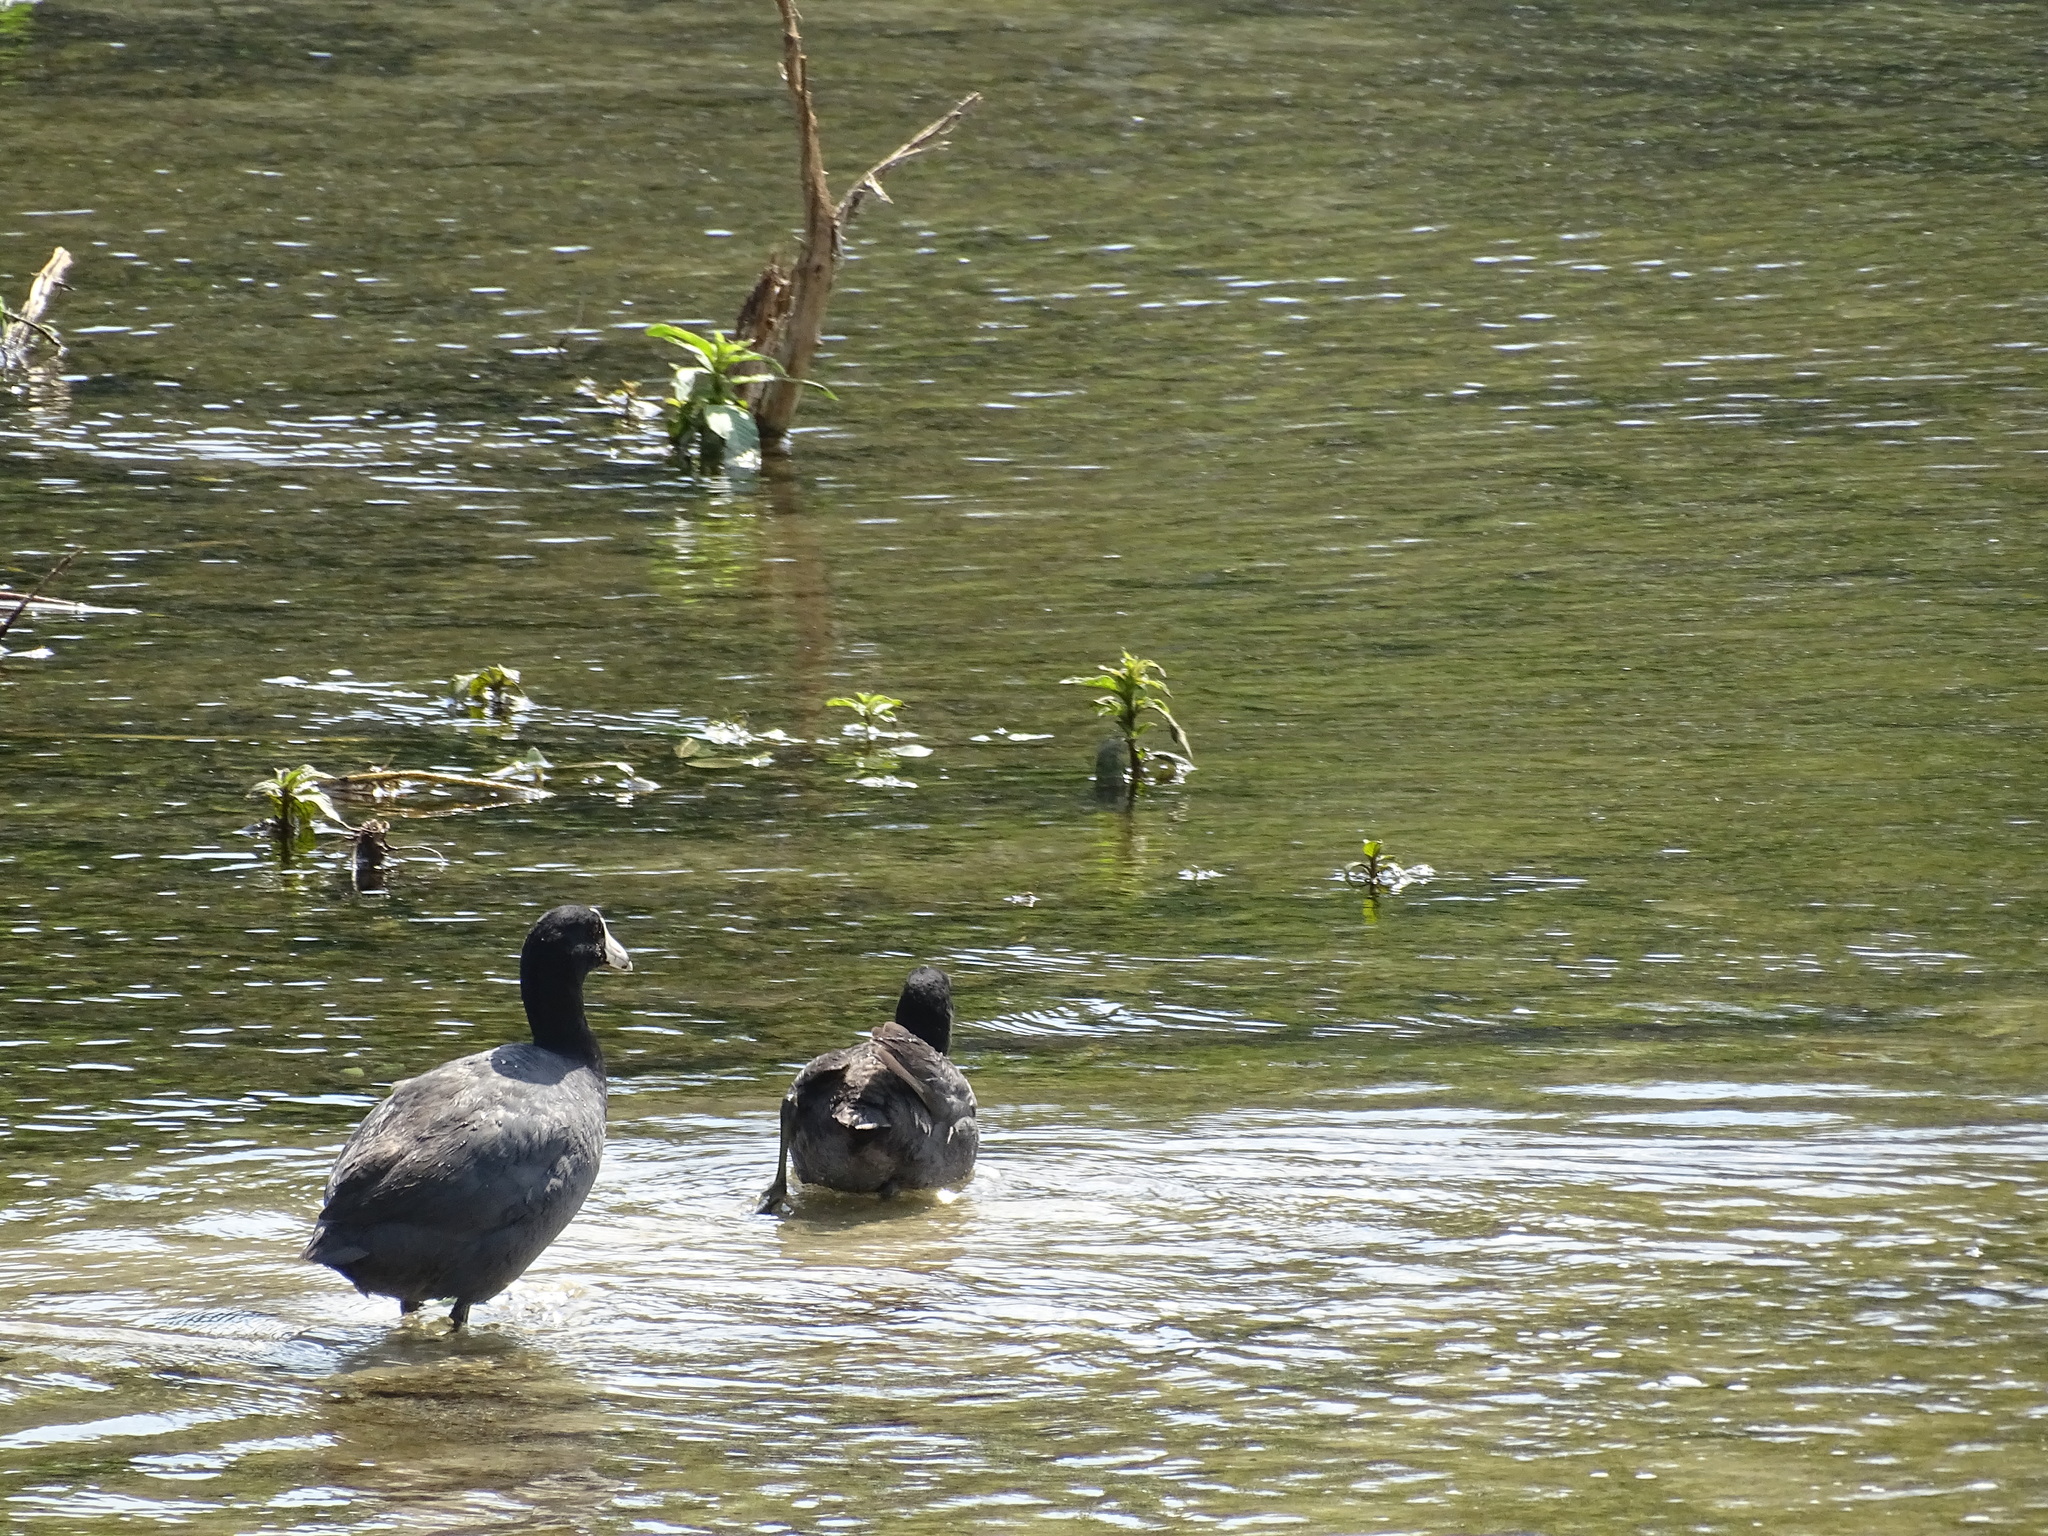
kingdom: Animalia
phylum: Chordata
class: Aves
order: Gruiformes
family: Rallidae
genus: Fulica
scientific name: Fulica americana
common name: American coot
